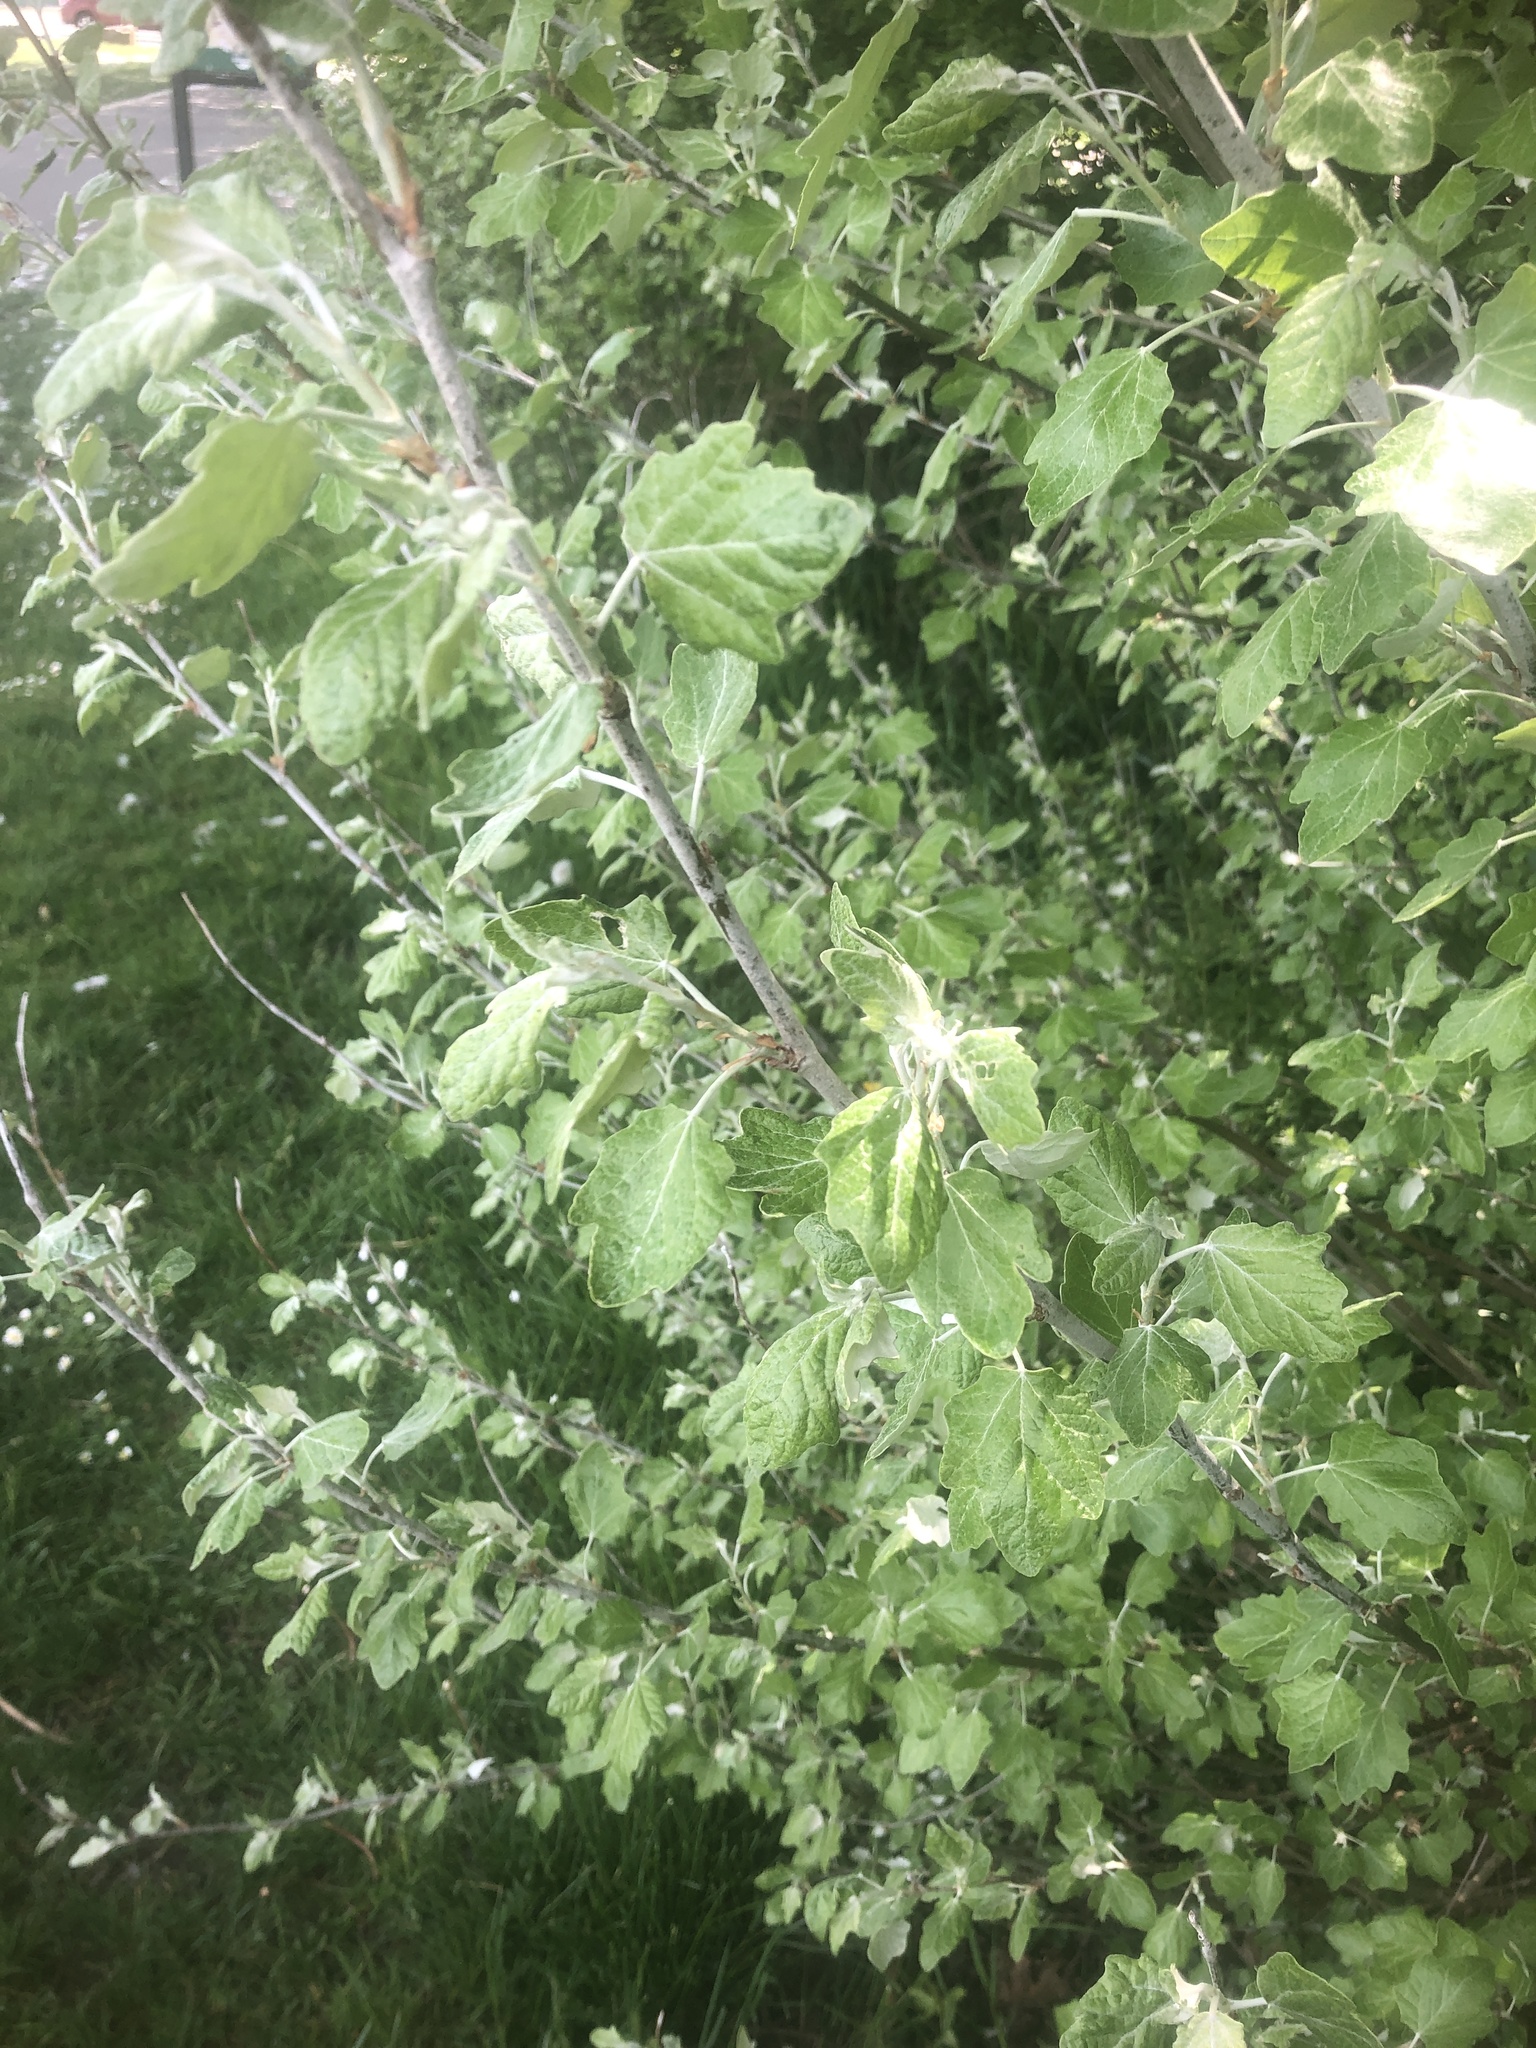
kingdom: Plantae
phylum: Tracheophyta
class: Magnoliopsida
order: Malpighiales
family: Salicaceae
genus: Populus
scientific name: Populus alba
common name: White poplar
